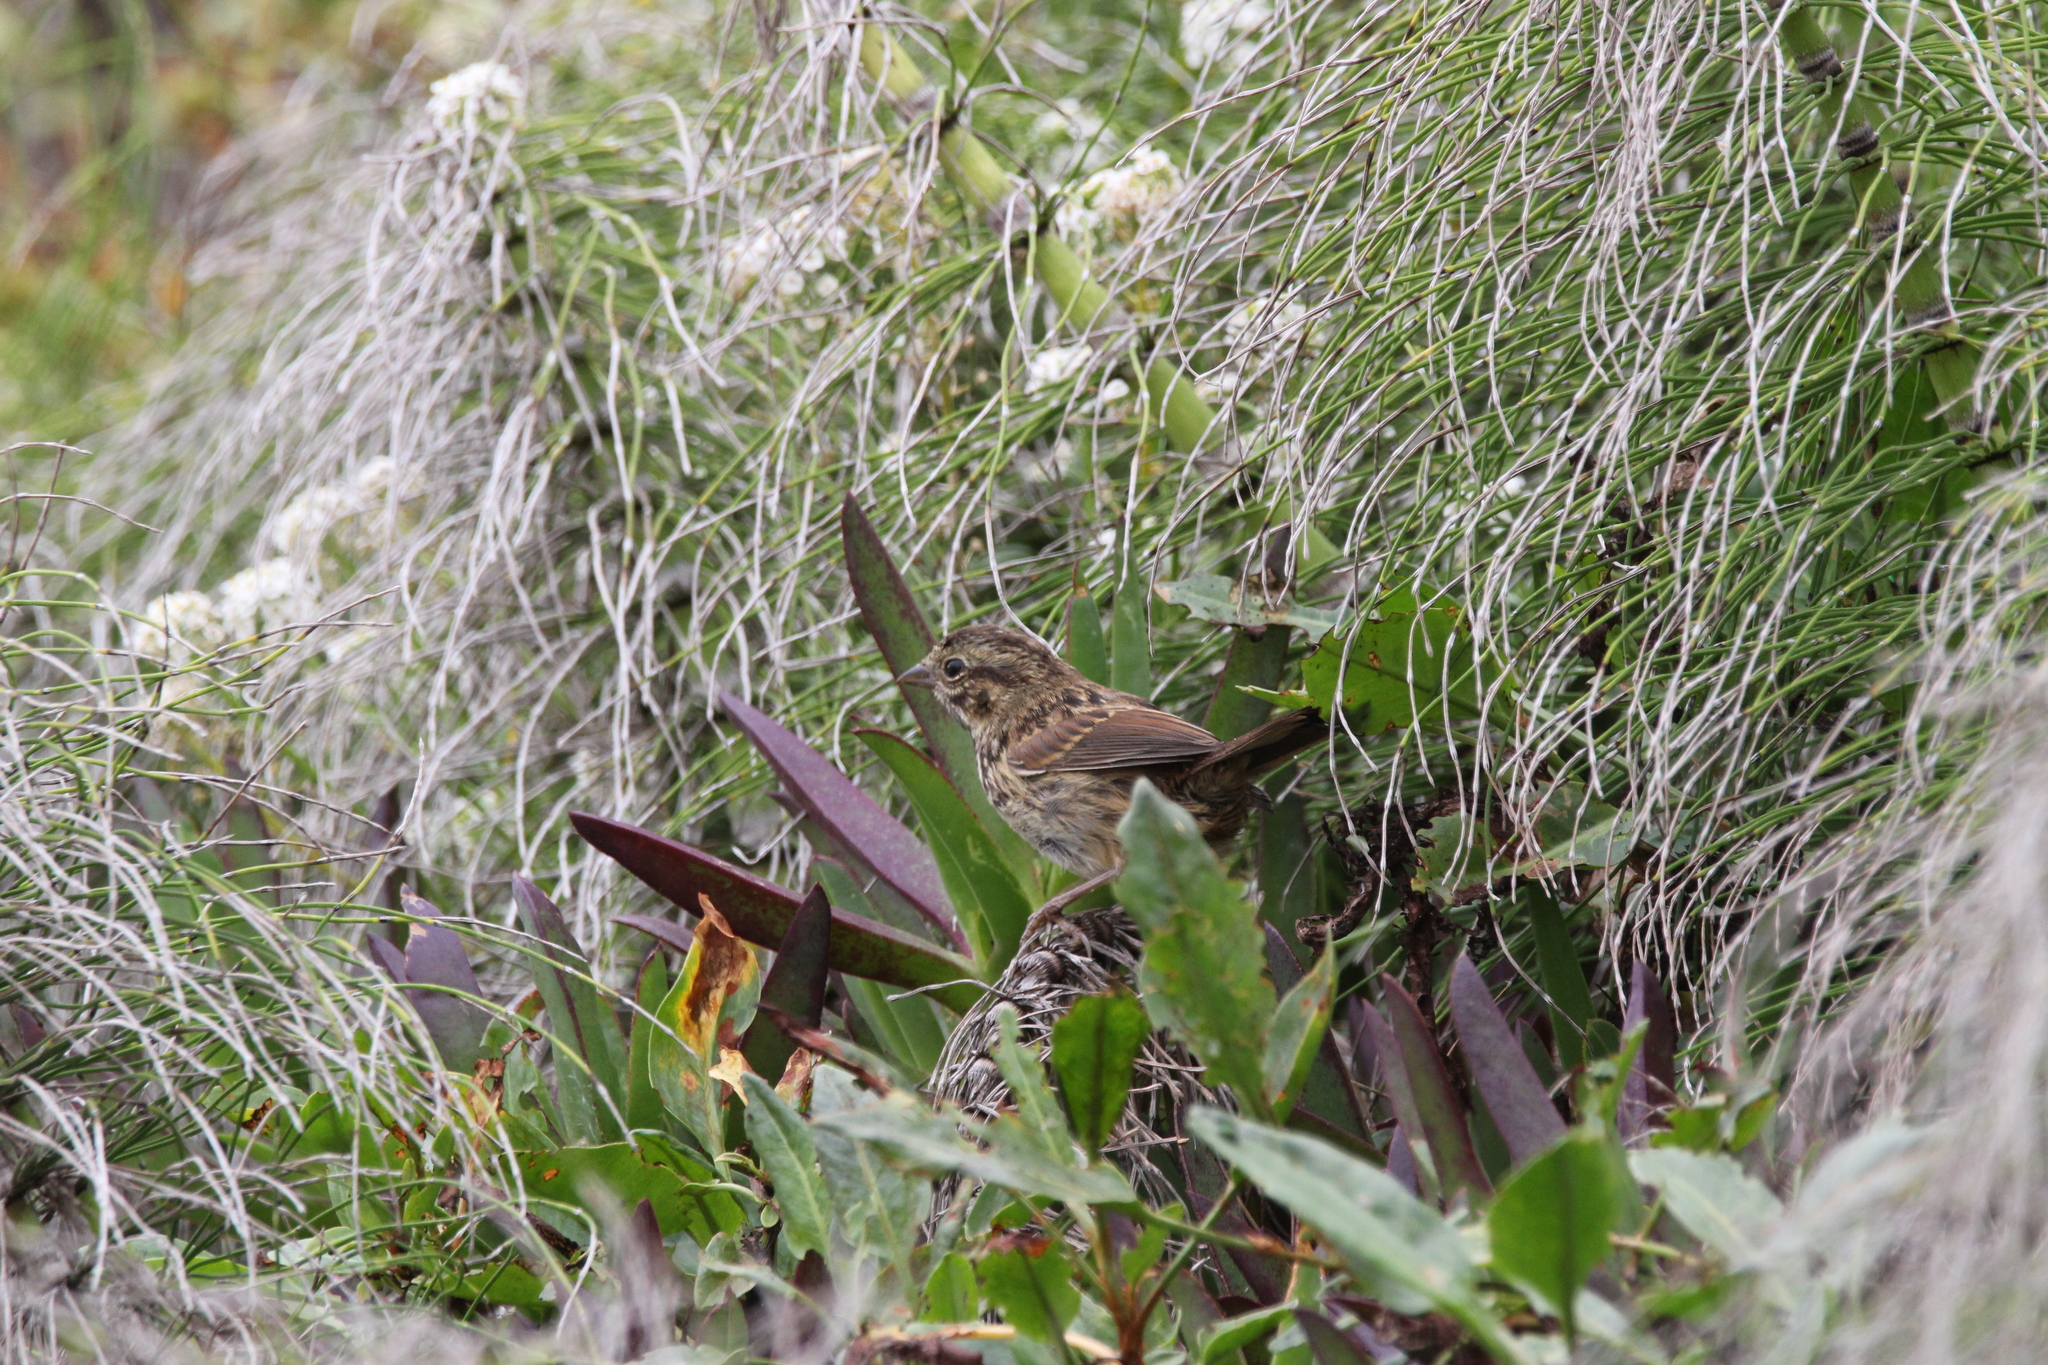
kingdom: Animalia
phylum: Chordata
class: Aves
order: Passeriformes
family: Passerellidae
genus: Melospiza
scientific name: Melospiza melodia
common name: Song sparrow
